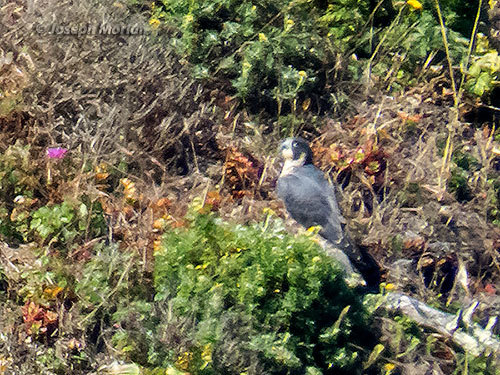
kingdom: Animalia
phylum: Chordata
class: Aves
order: Falconiformes
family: Falconidae
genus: Falco
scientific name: Falco peregrinus
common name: Peregrine falcon
